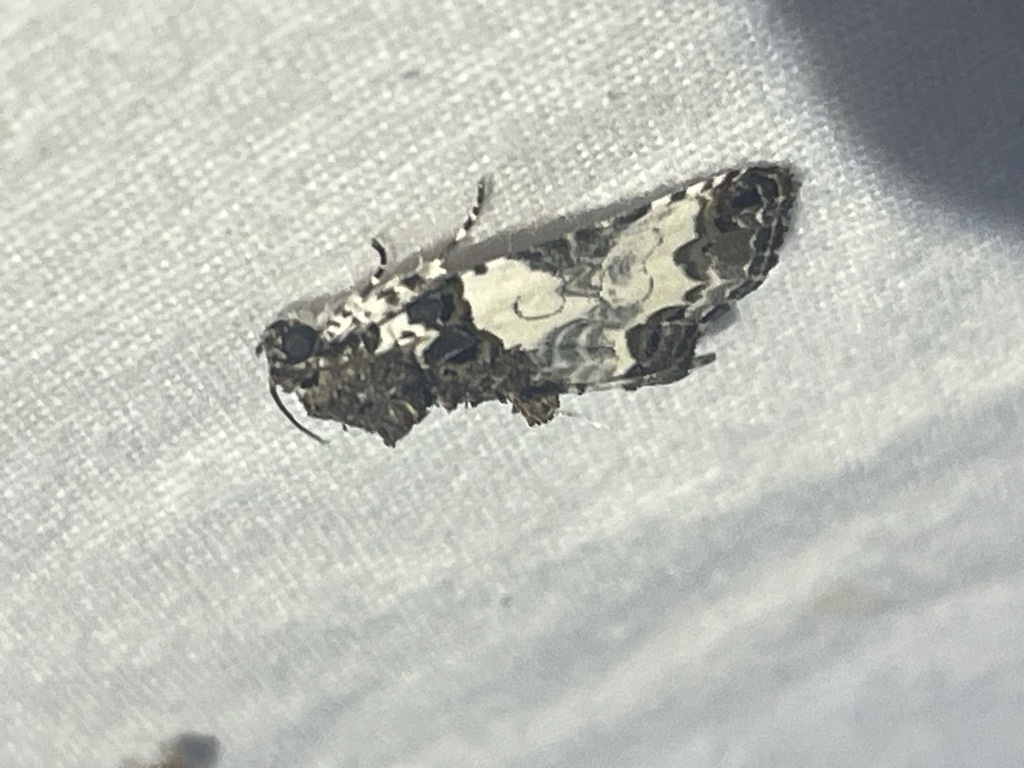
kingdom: Animalia
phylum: Arthropoda
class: Insecta
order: Lepidoptera
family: Noctuidae
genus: Cerma
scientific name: Cerma cerintha
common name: Tufted bird-dropping moth
